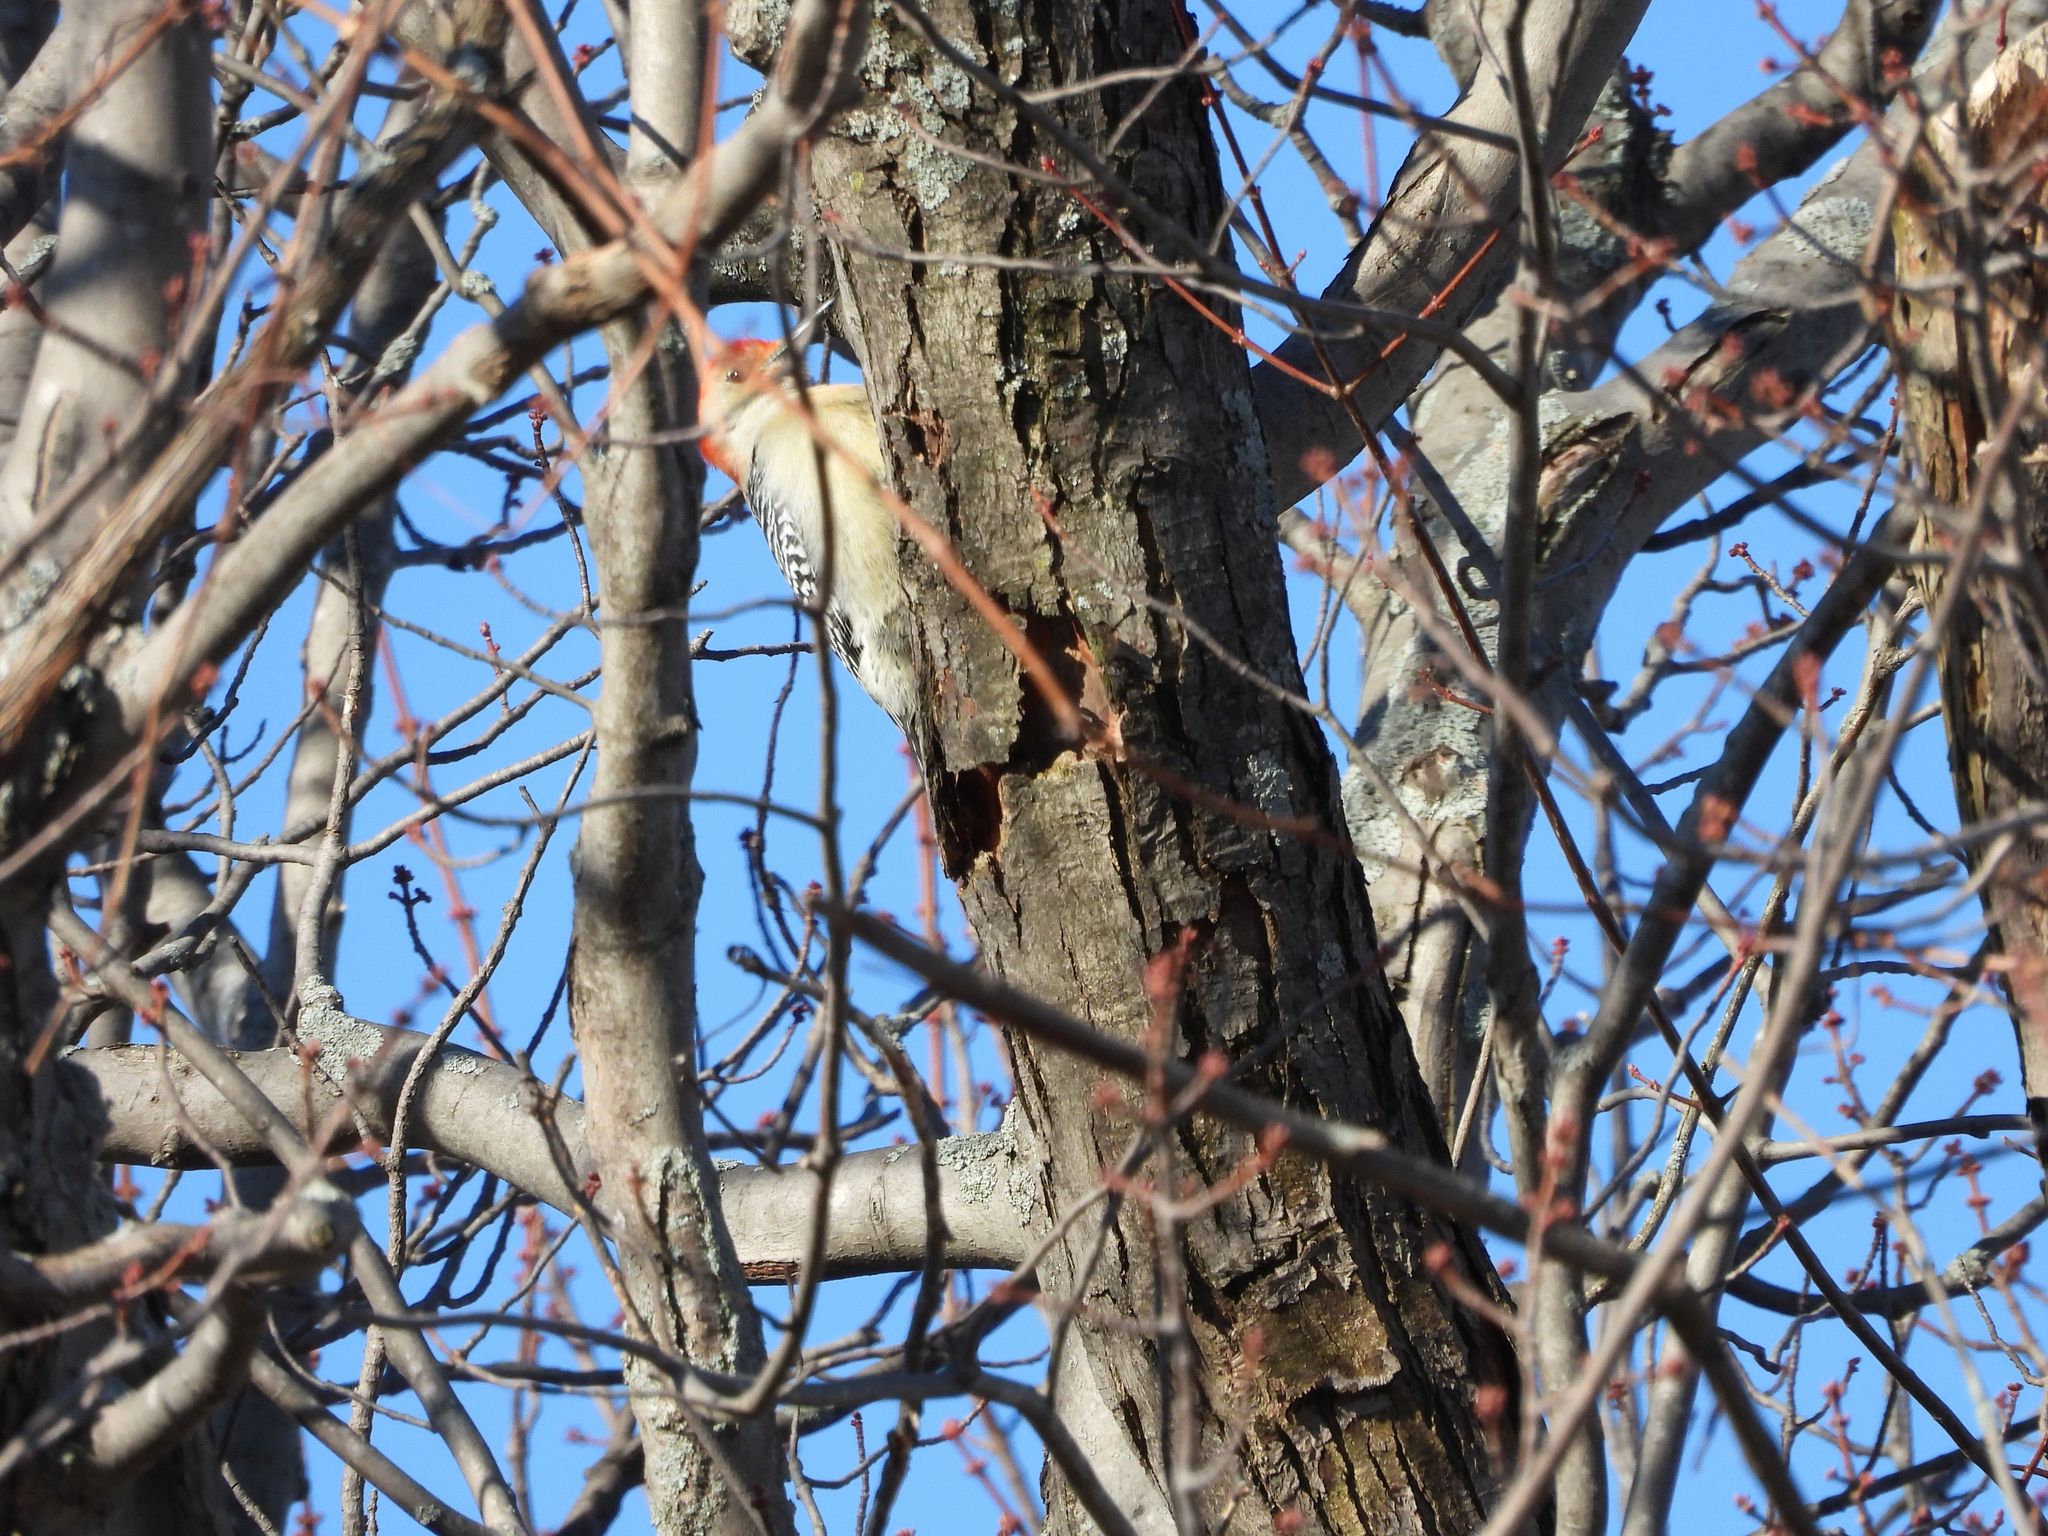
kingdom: Animalia
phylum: Chordata
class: Aves
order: Piciformes
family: Picidae
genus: Melanerpes
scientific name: Melanerpes carolinus
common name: Red-bellied woodpecker
